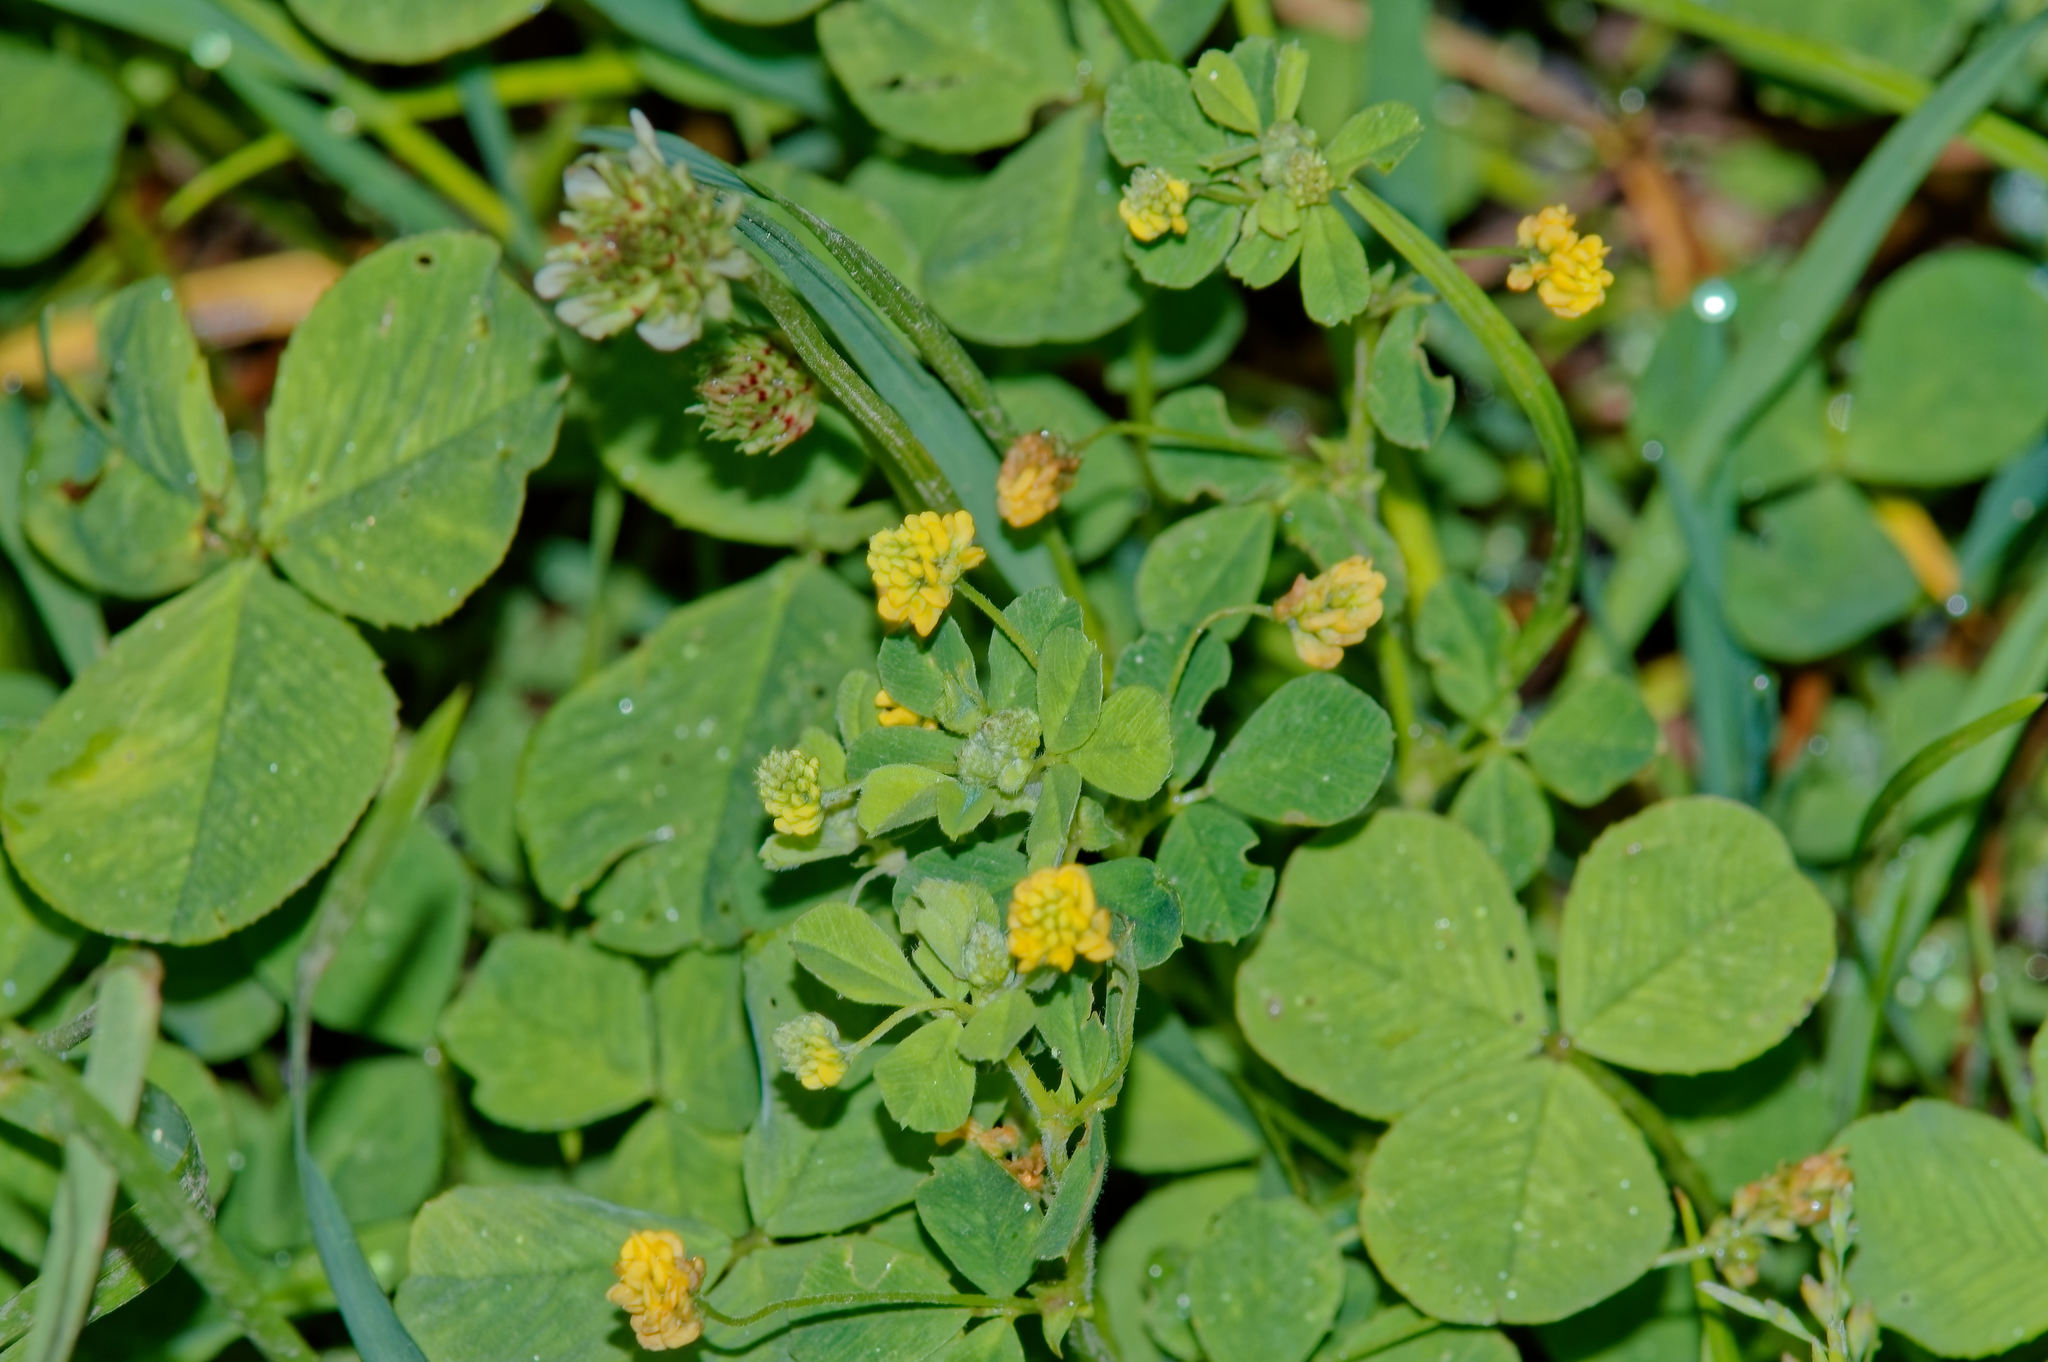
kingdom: Plantae
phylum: Tracheophyta
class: Magnoliopsida
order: Fabales
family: Fabaceae
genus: Medicago
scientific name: Medicago lupulina
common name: Black medick
